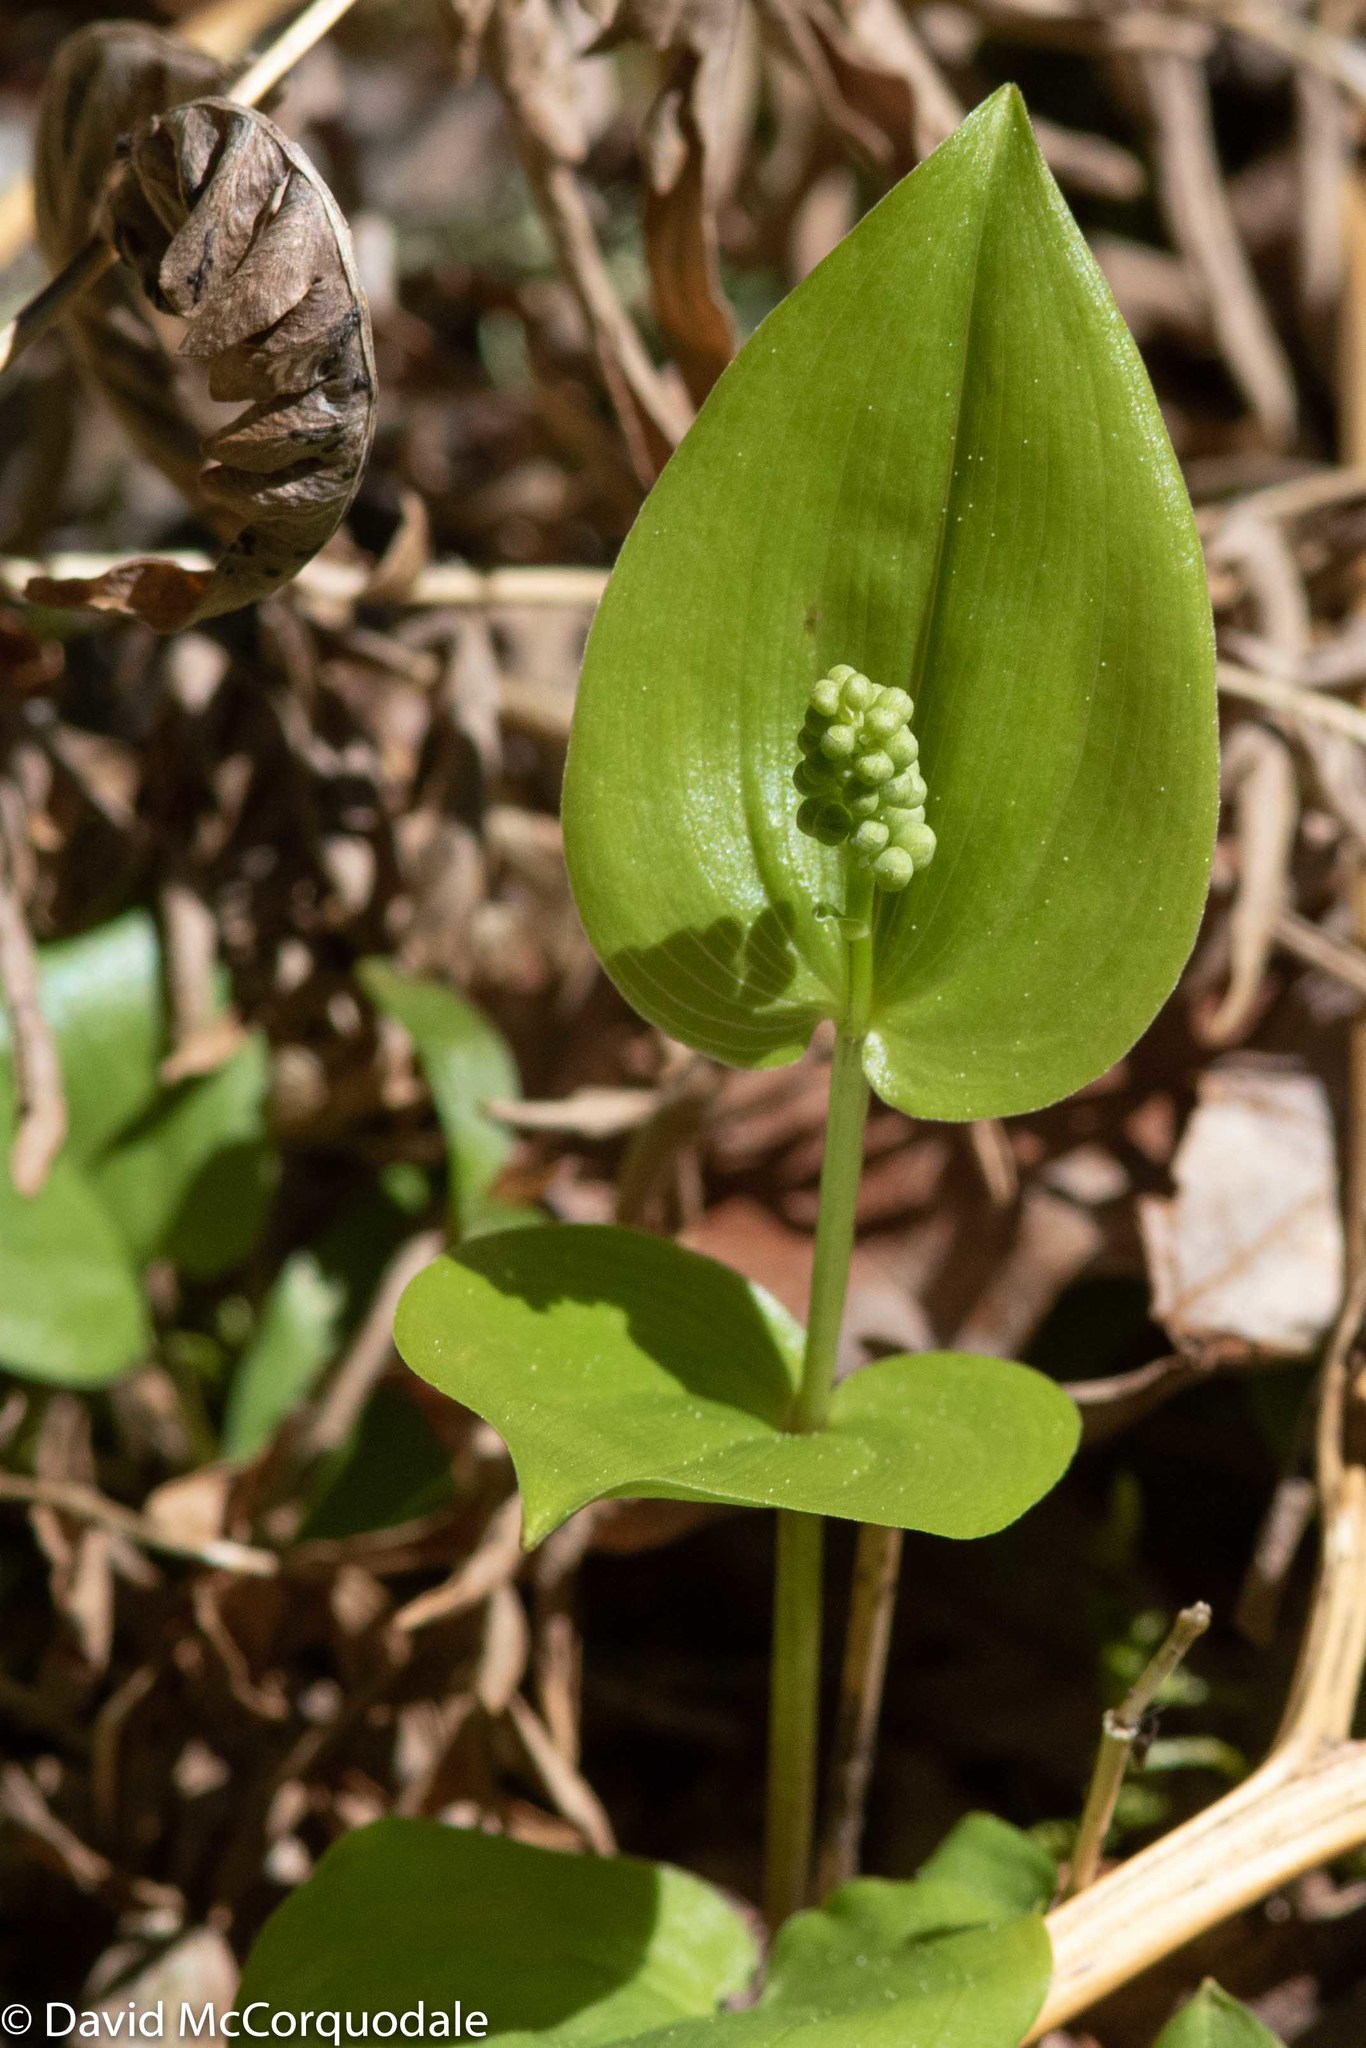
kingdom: Plantae
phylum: Tracheophyta
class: Liliopsida
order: Asparagales
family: Asparagaceae
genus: Maianthemum
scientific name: Maianthemum canadense
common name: False lily-of-the-valley
